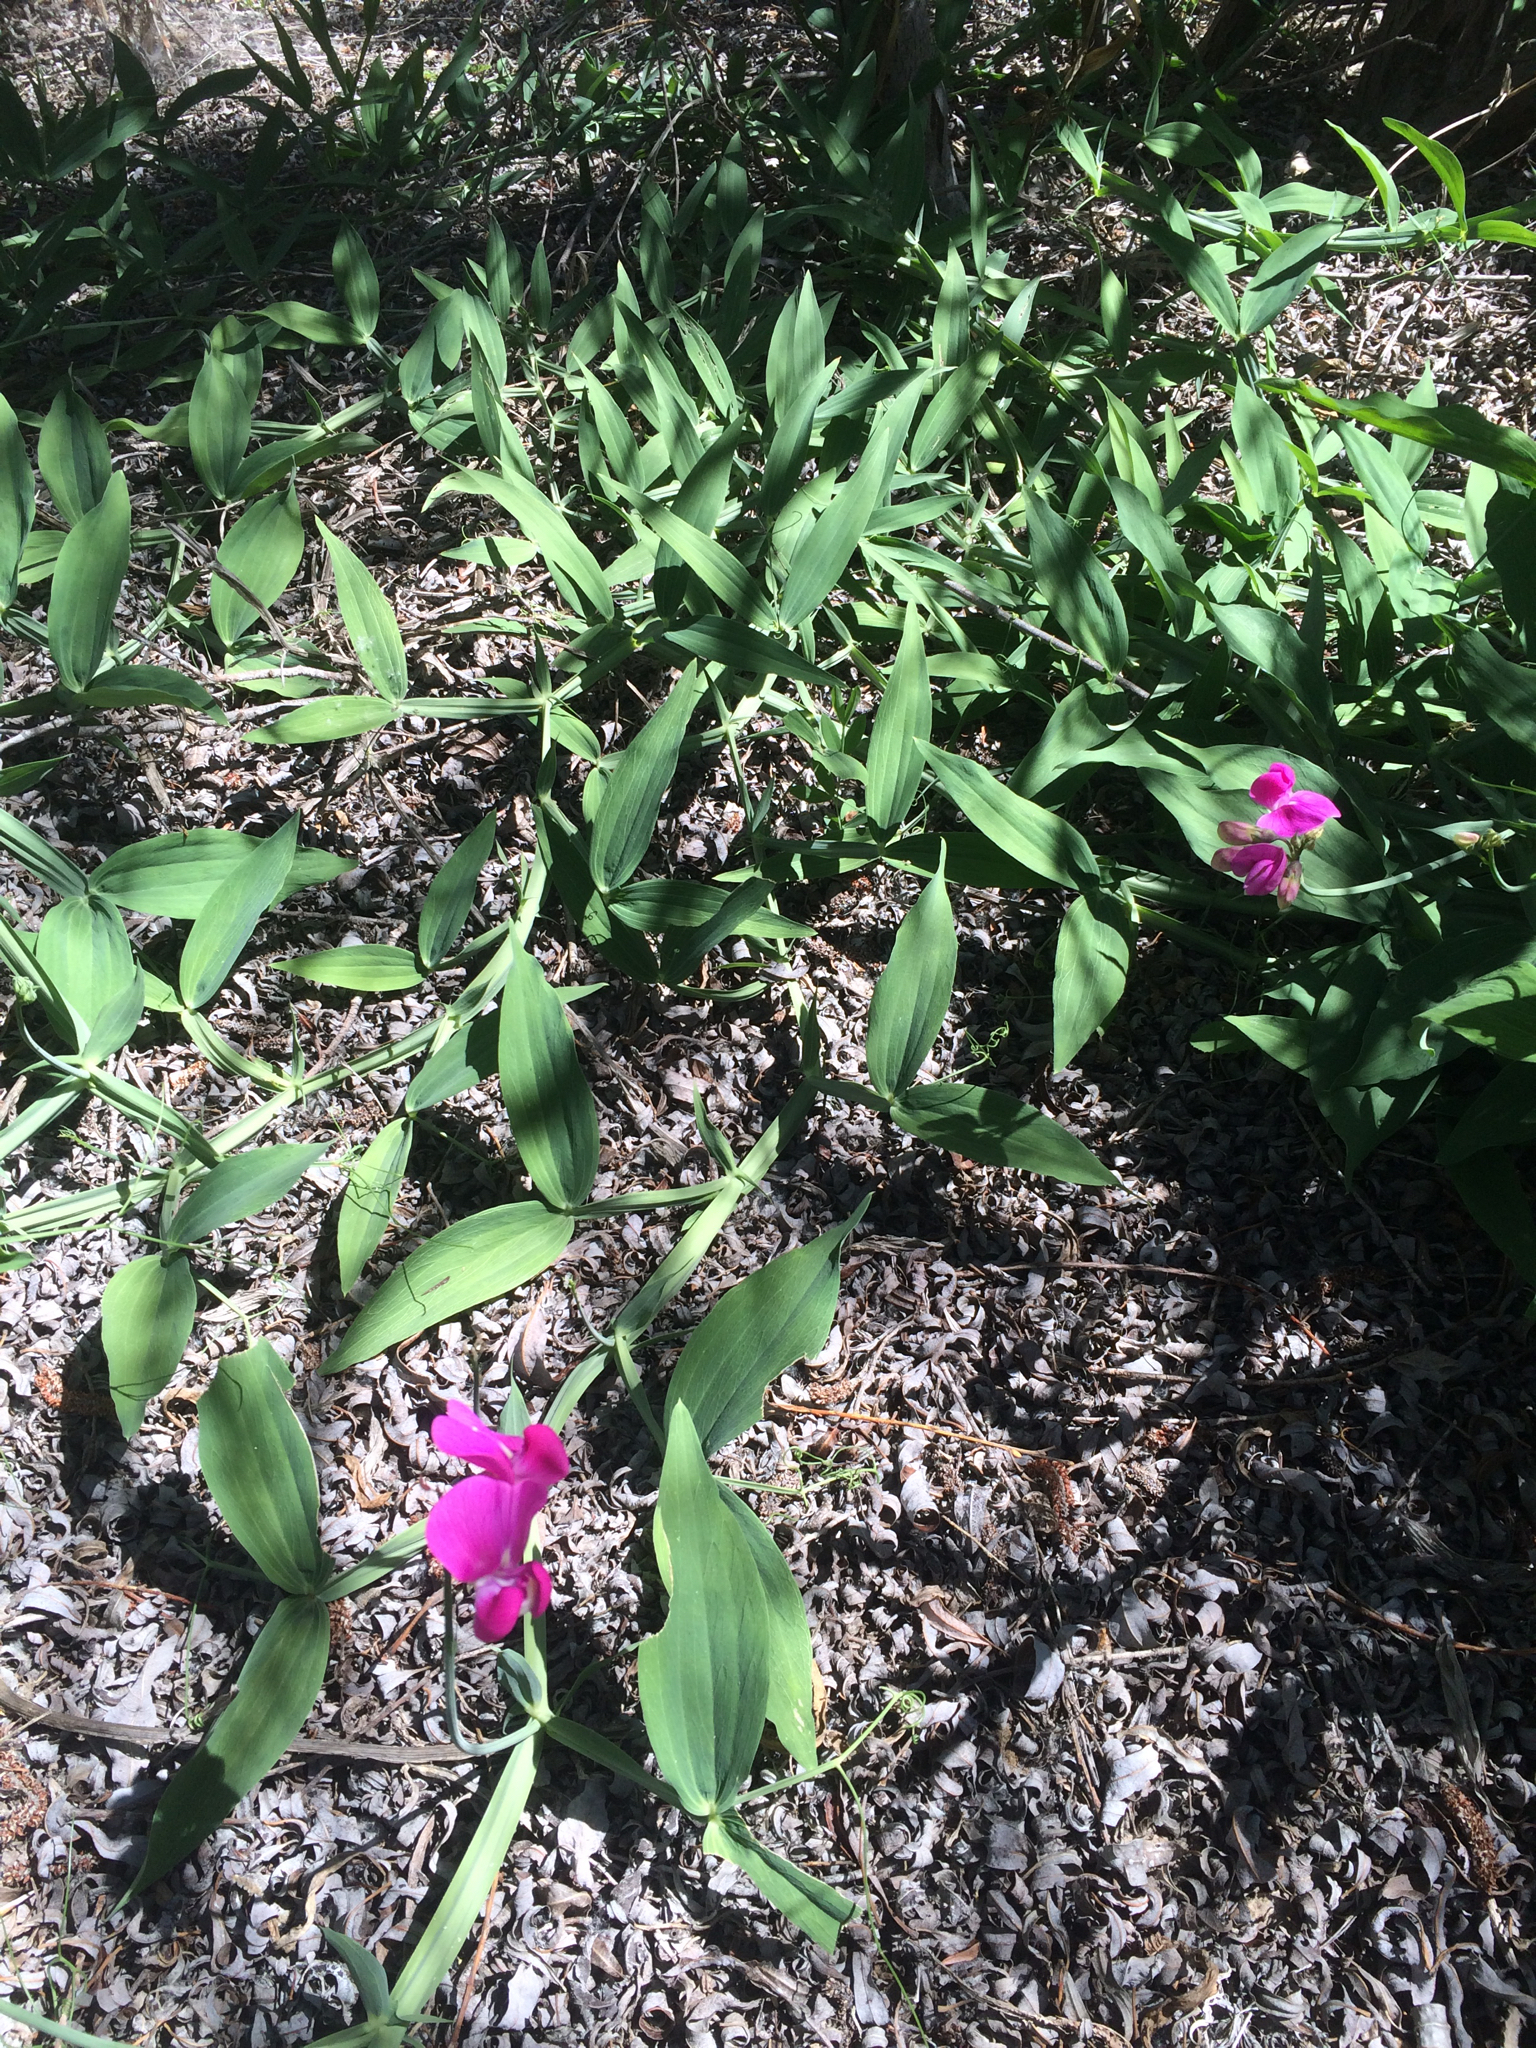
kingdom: Plantae
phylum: Tracheophyta
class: Magnoliopsida
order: Fabales
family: Fabaceae
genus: Lathyrus
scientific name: Lathyrus latifolius
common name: Perennial pea
